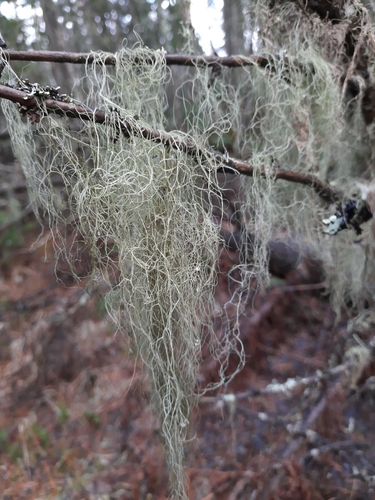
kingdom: Fungi
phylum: Ascomycota
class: Lecanoromycetes
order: Lecanorales
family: Parmeliaceae
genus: Bryoria
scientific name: Bryoria
